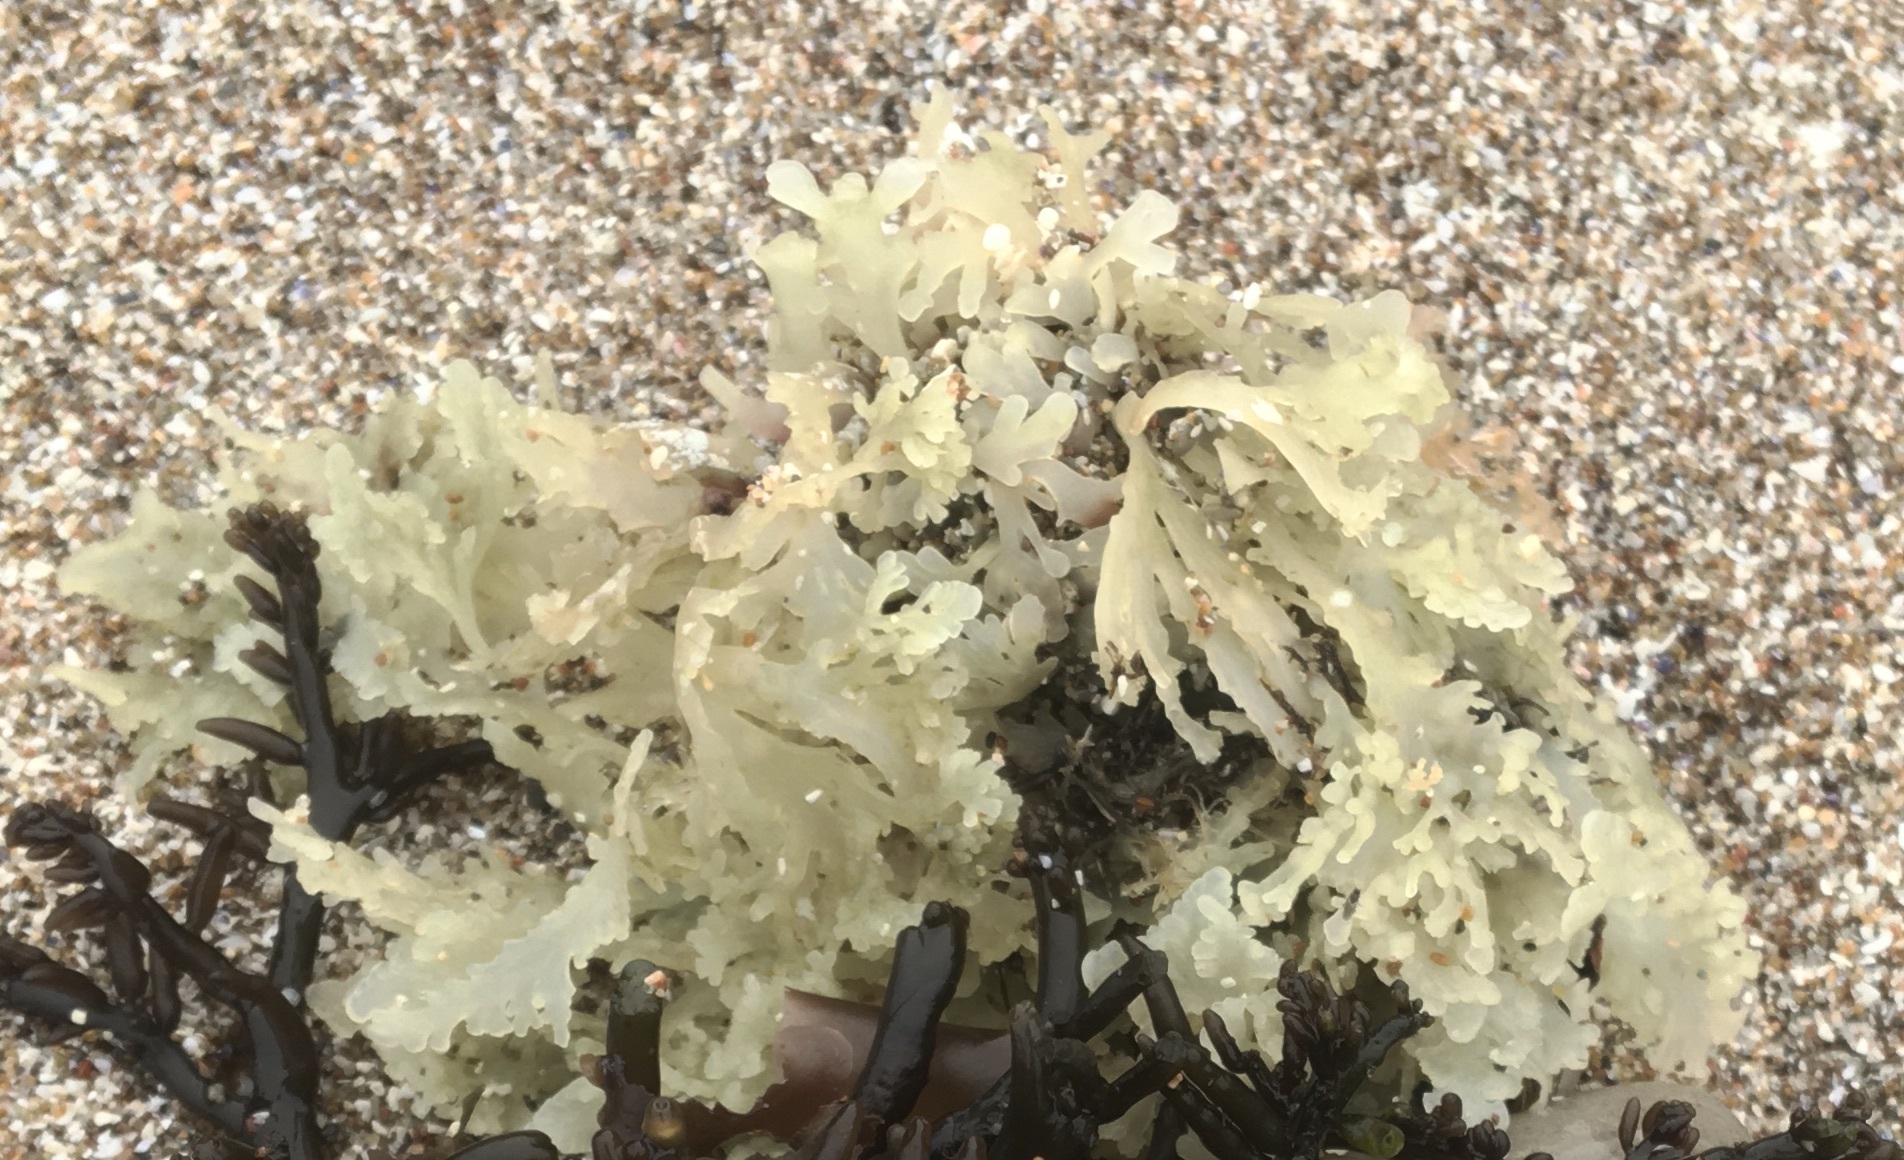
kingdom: Plantae
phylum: Rhodophyta
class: Florideophyceae
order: Ceramiales
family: Rhodomelaceae
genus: Osmundea
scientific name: Osmundea spectabilis
